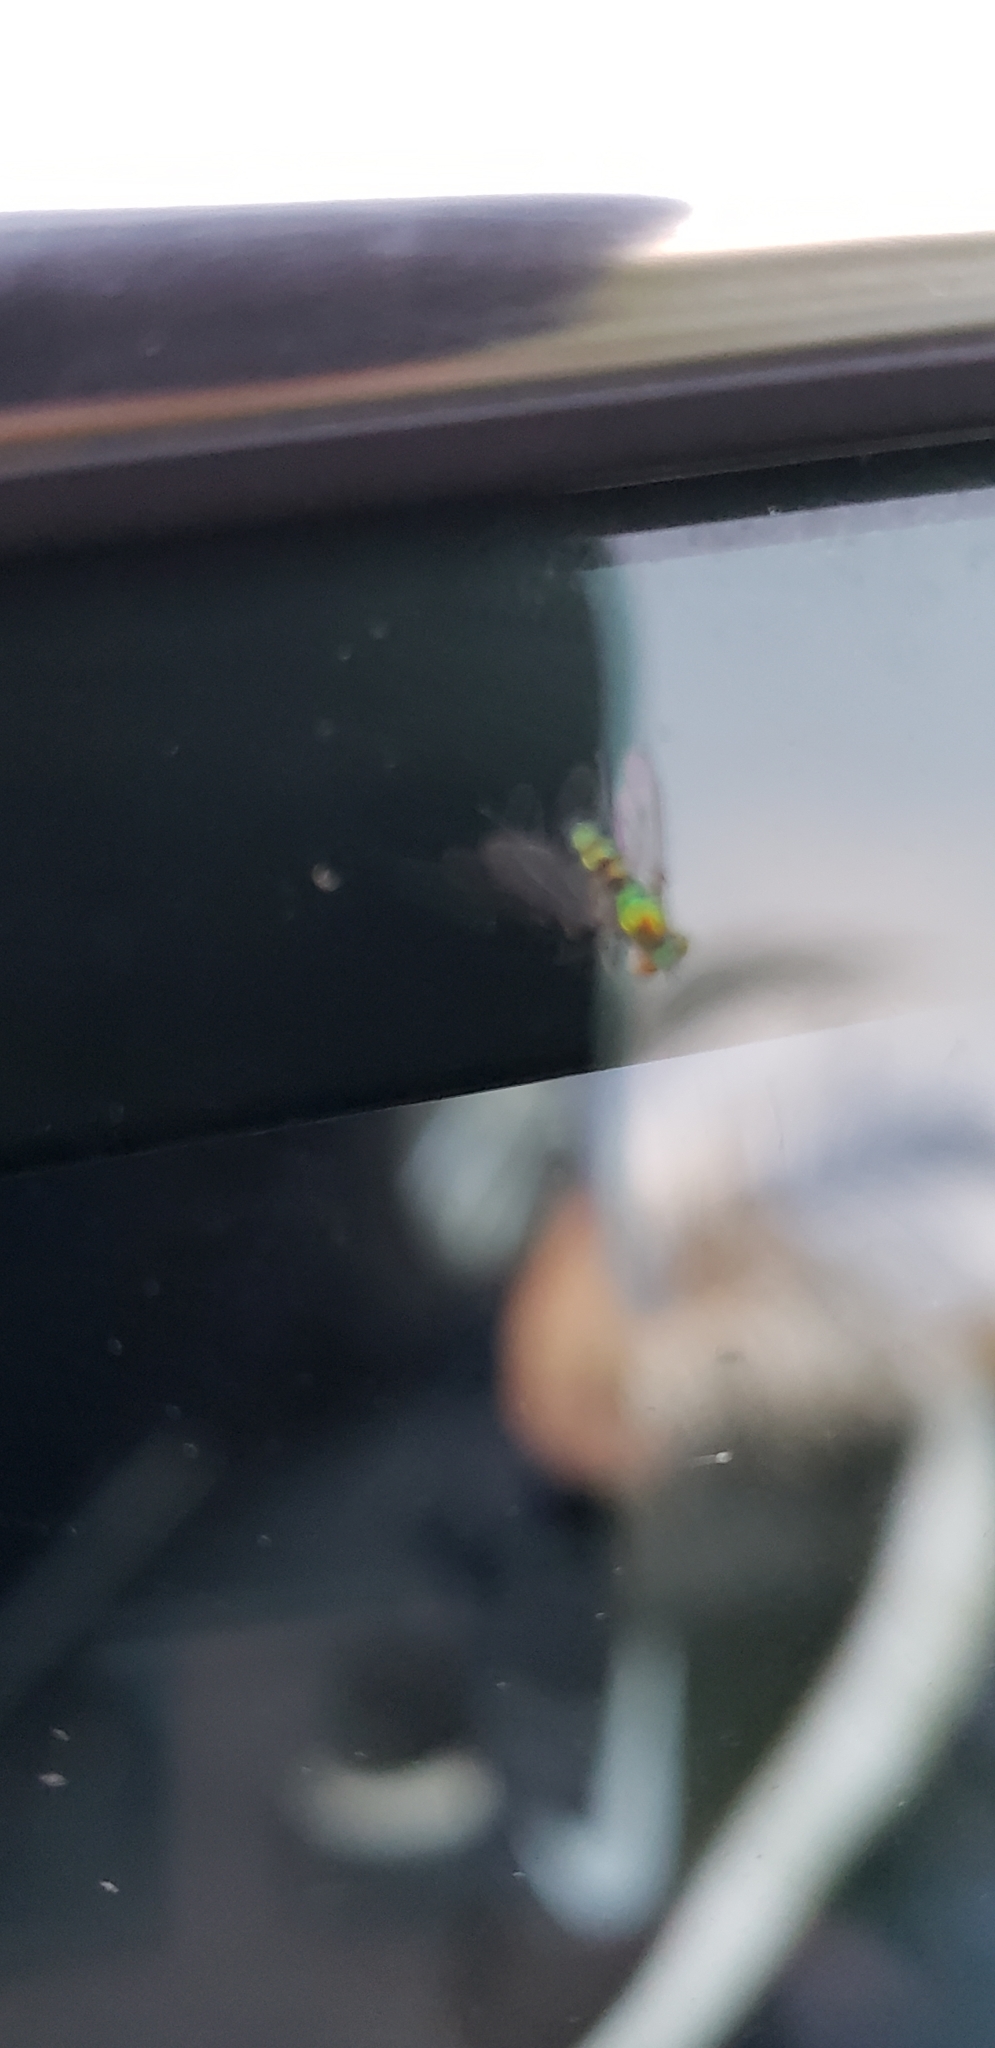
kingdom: Animalia
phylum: Arthropoda
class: Insecta
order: Diptera
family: Dolichopodidae
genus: Condylostylus
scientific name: Condylostylus pruinosus
